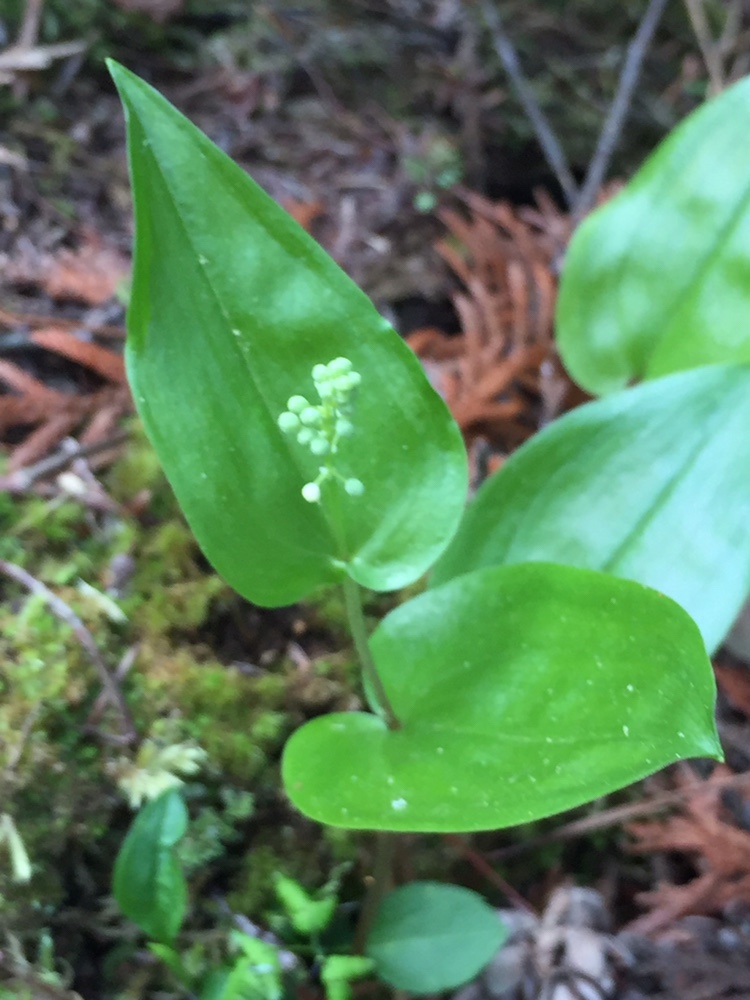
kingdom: Plantae
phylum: Tracheophyta
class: Liliopsida
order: Asparagales
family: Asparagaceae
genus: Maianthemum
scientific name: Maianthemum canadense
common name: False lily-of-the-valley
